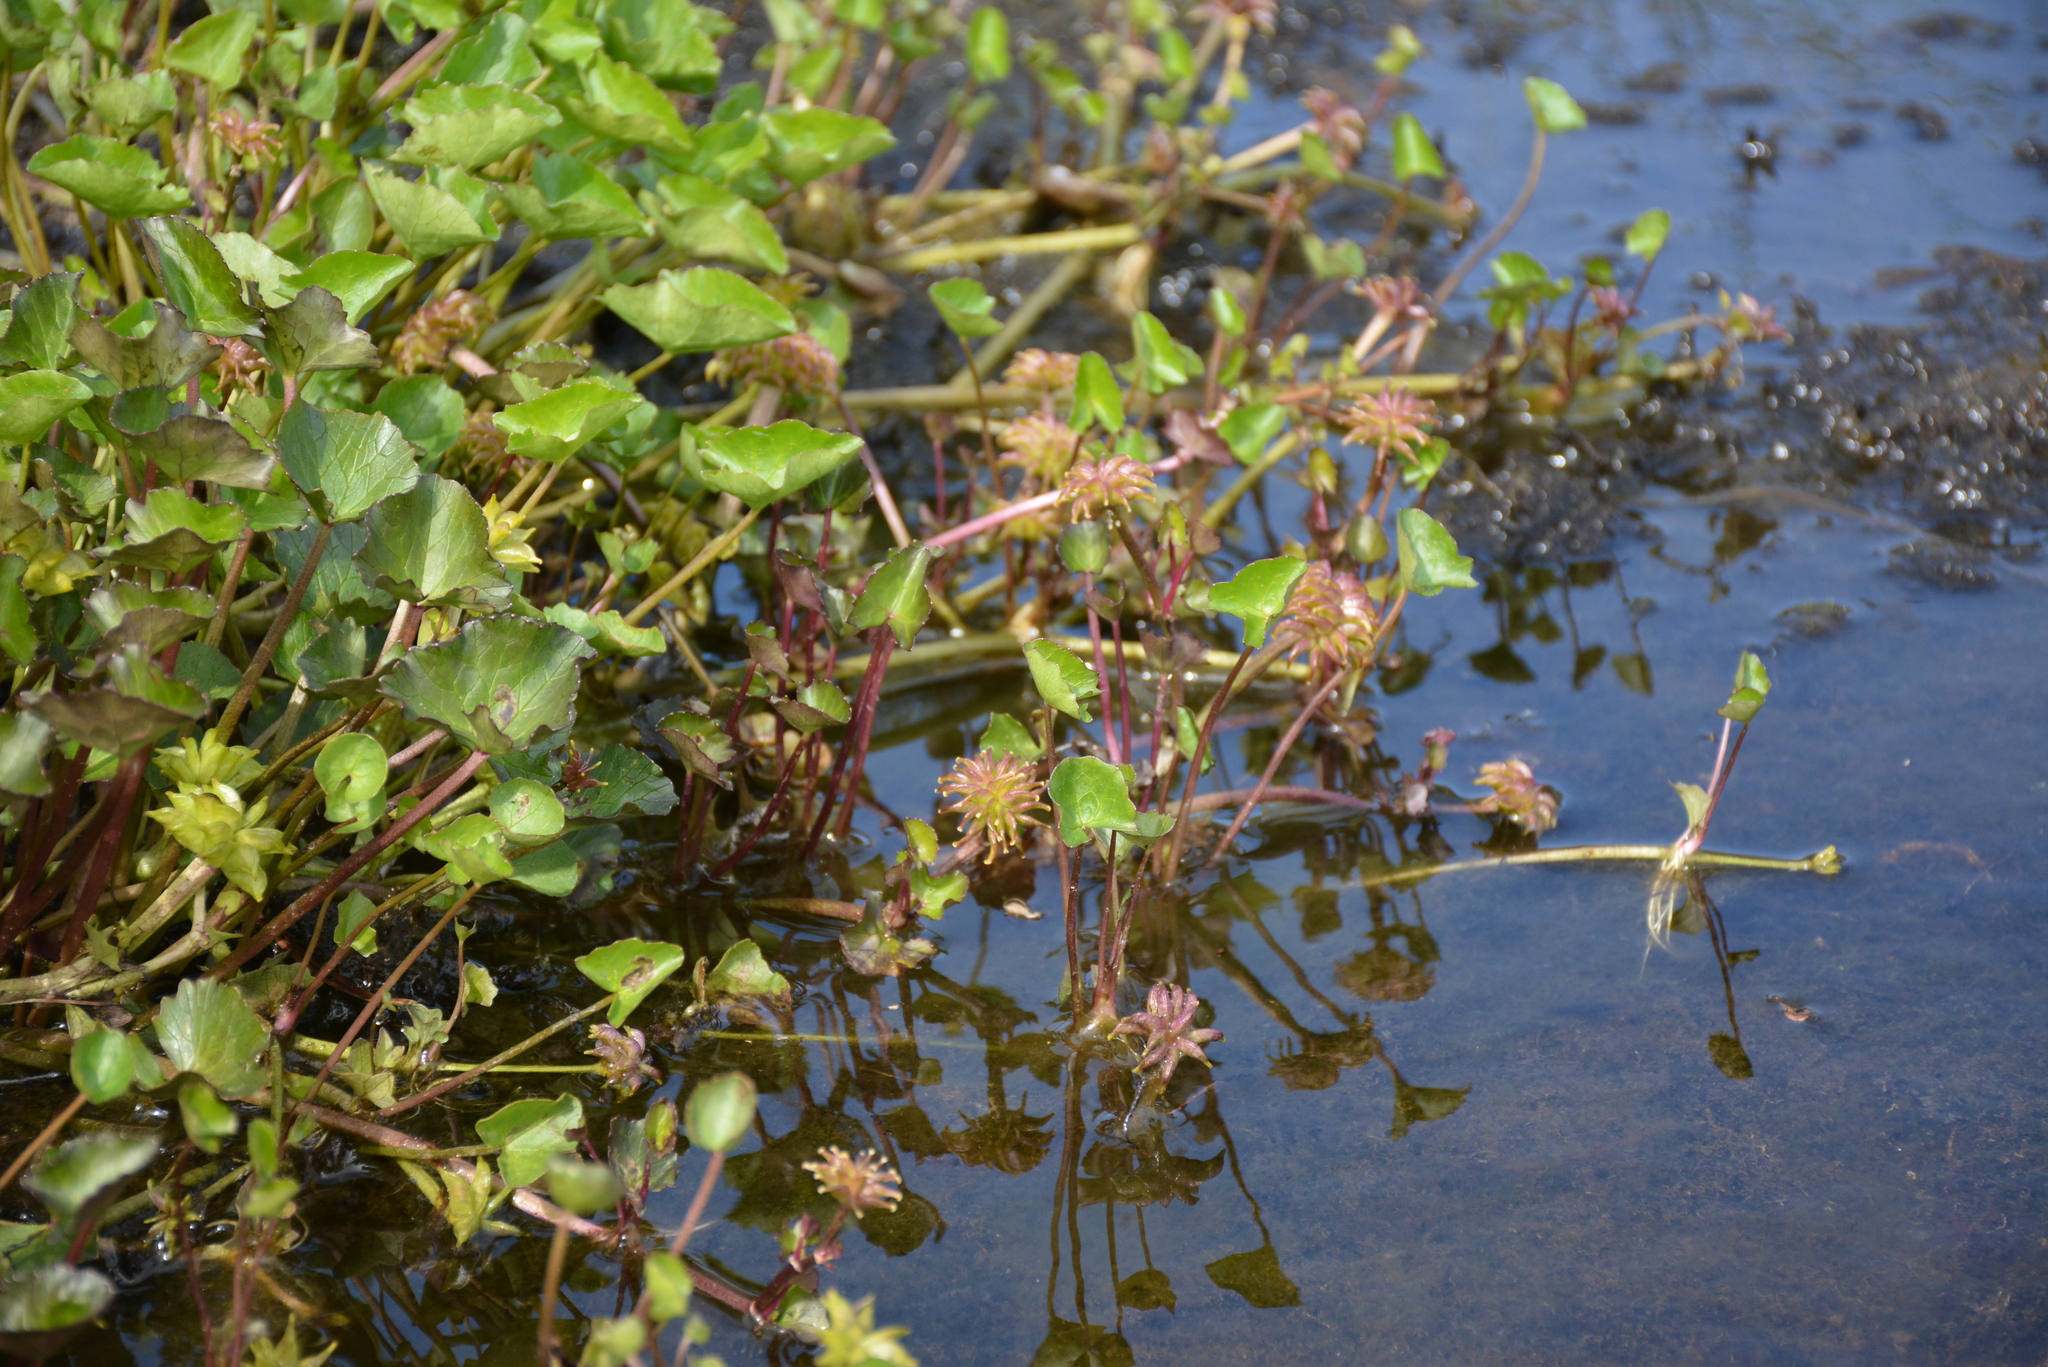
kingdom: Plantae
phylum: Tracheophyta
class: Magnoliopsida
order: Ranunculales
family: Ranunculaceae
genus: Caltha
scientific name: Caltha palustris
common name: Marsh marigold
